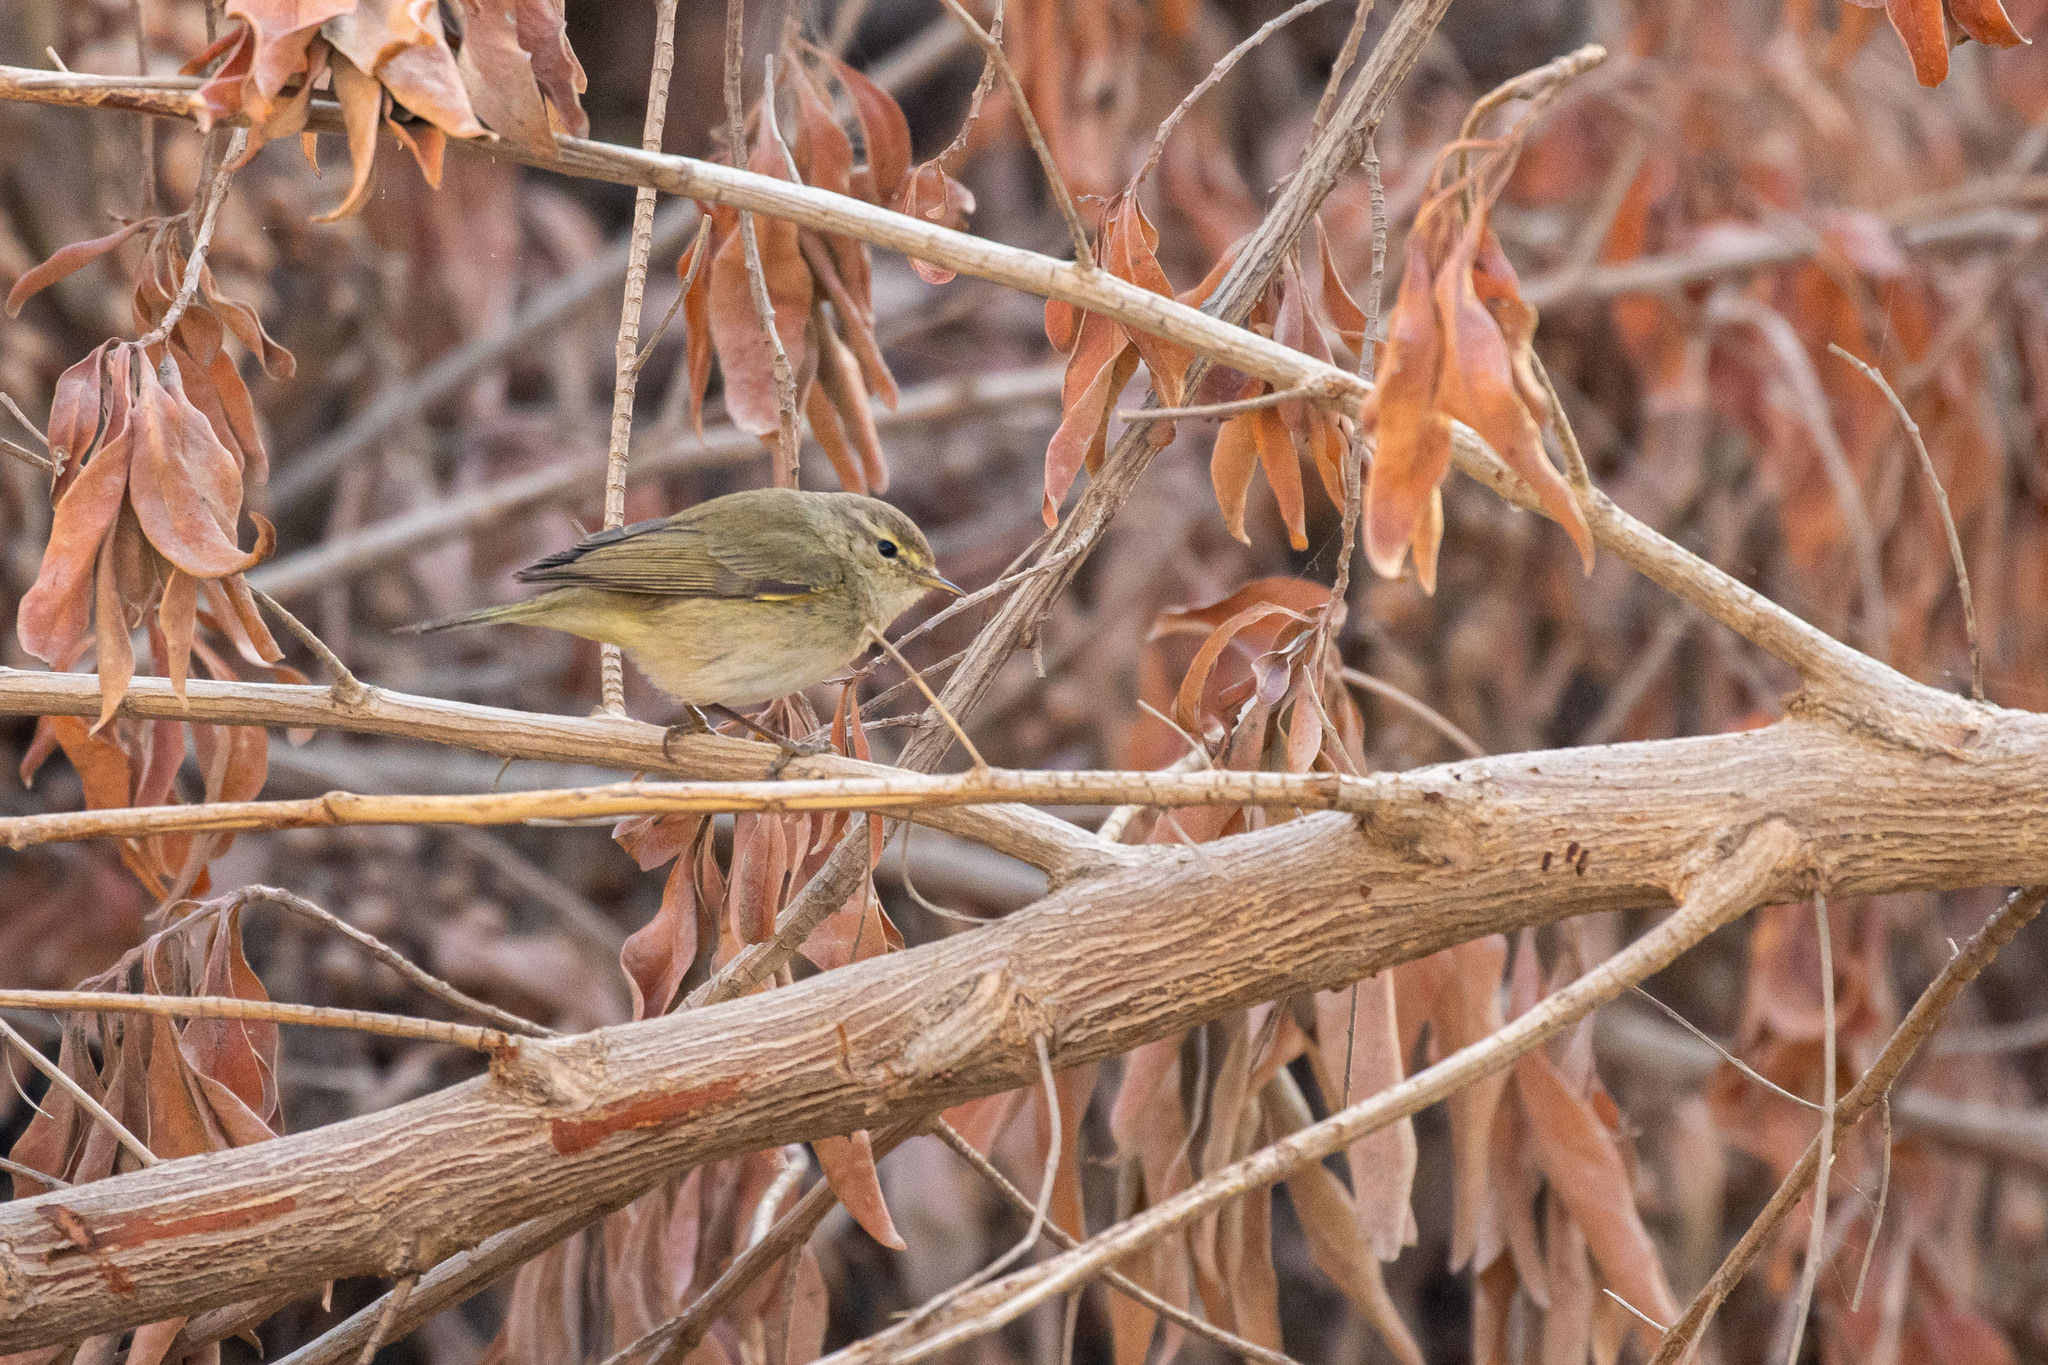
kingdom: Animalia
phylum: Chordata
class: Aves
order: Passeriformes
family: Phylloscopidae
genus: Phylloscopus
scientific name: Phylloscopus collybita
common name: Common chiffchaff
